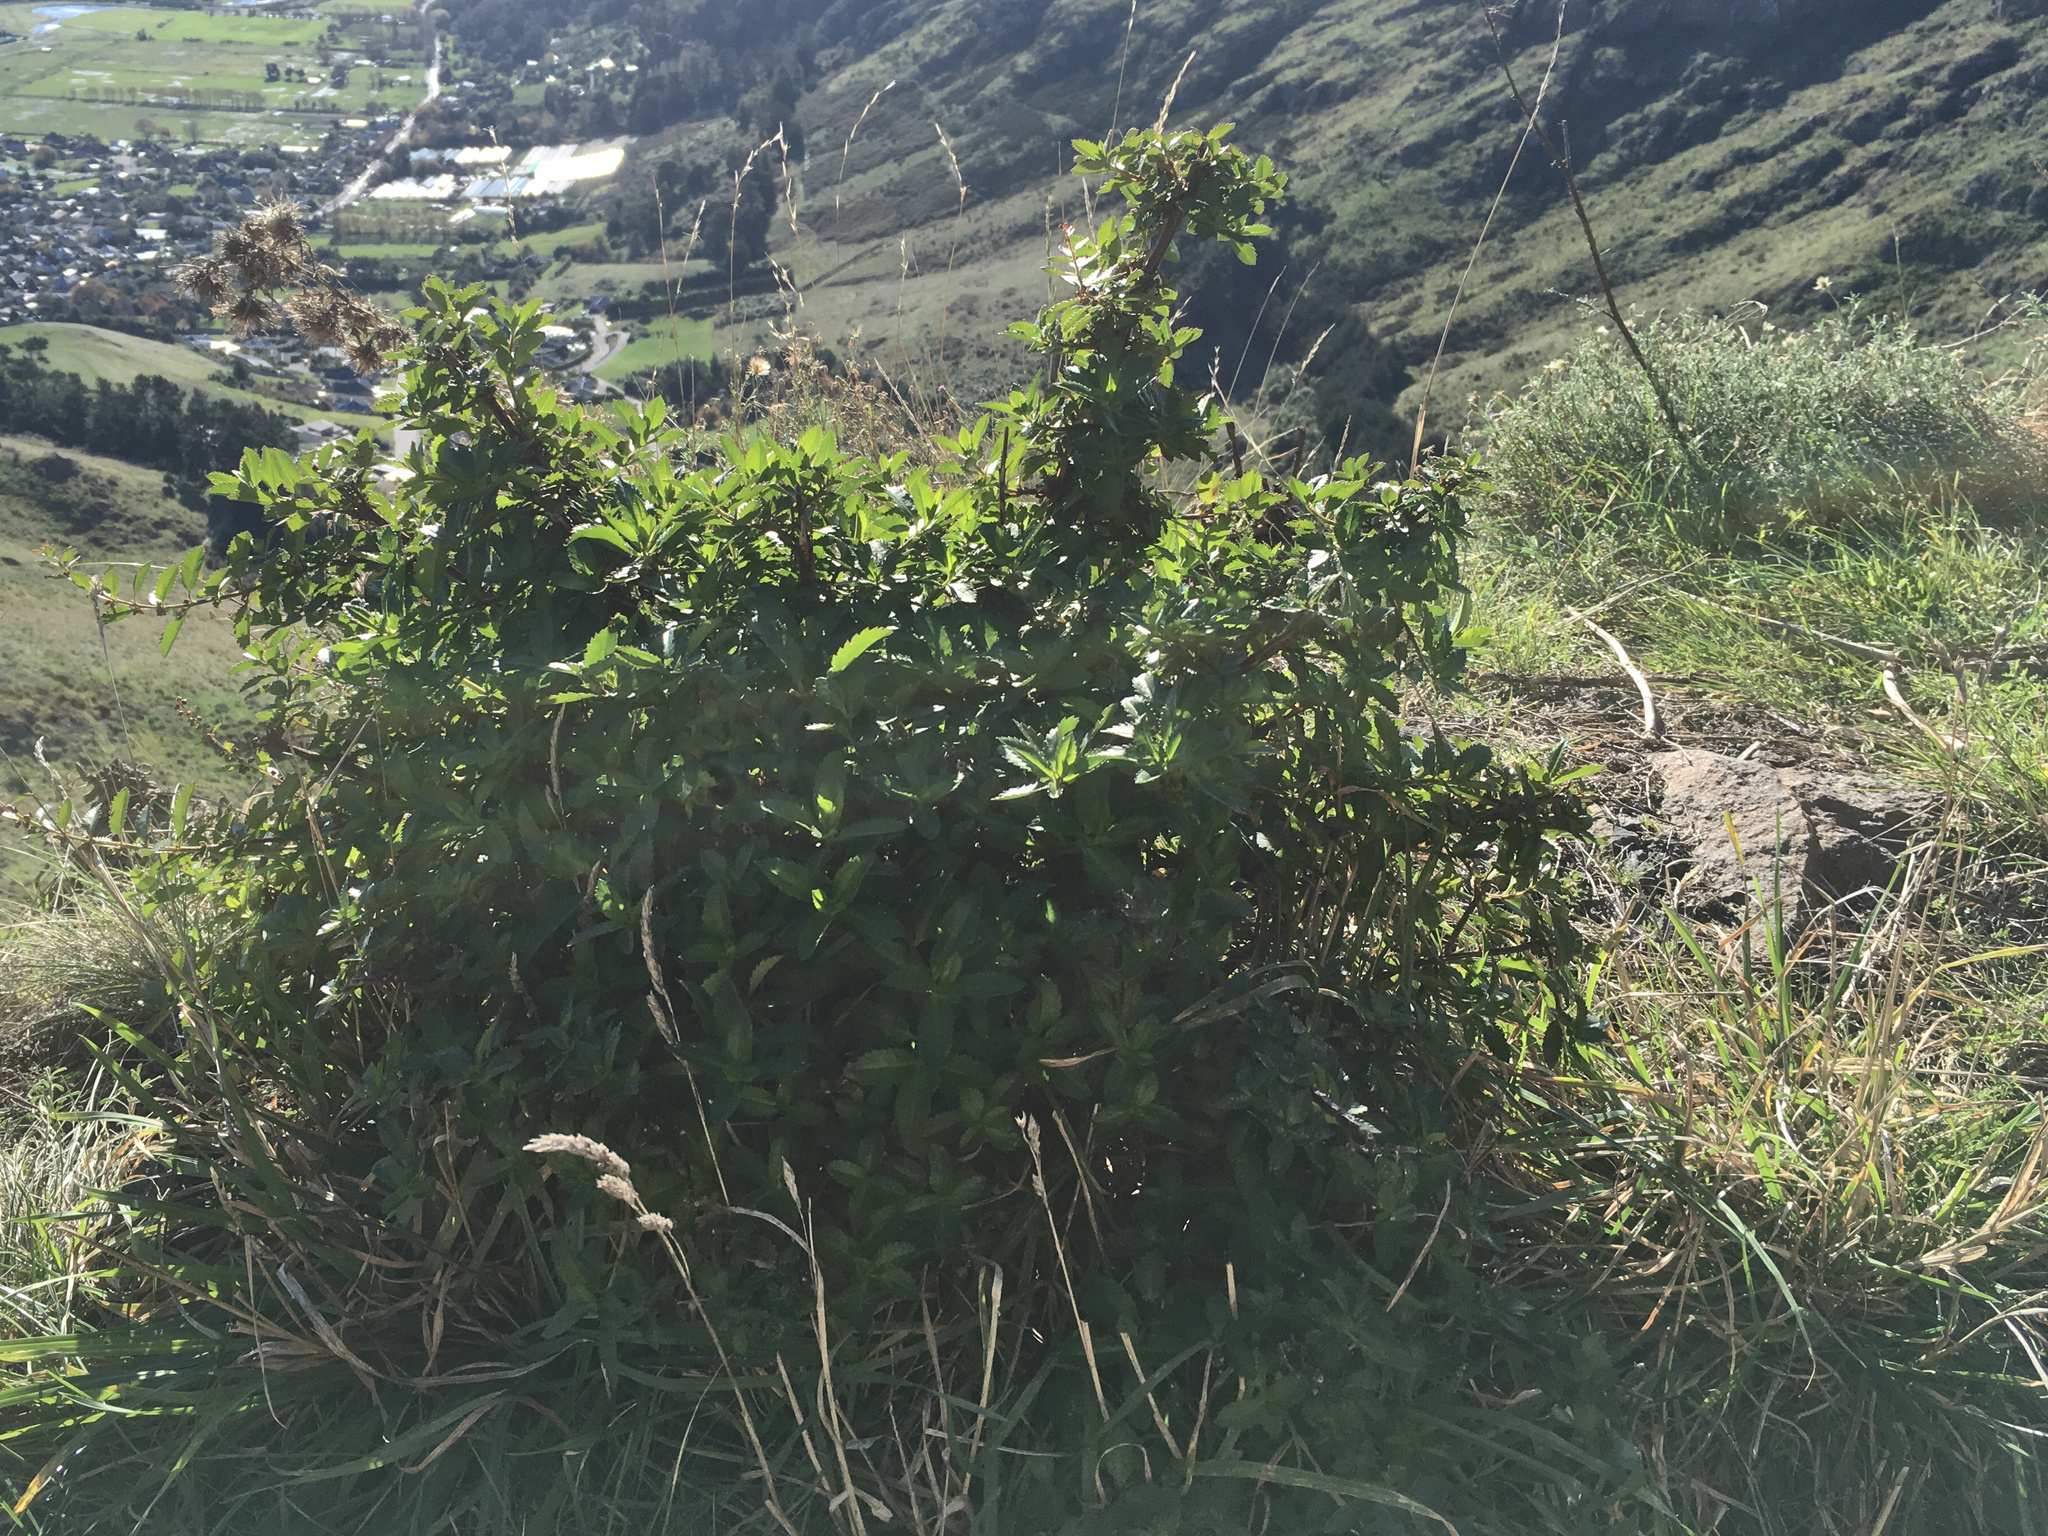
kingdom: Plantae
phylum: Tracheophyta
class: Magnoliopsida
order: Saxifragales
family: Haloragaceae
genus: Haloragis
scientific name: Haloragis erecta
